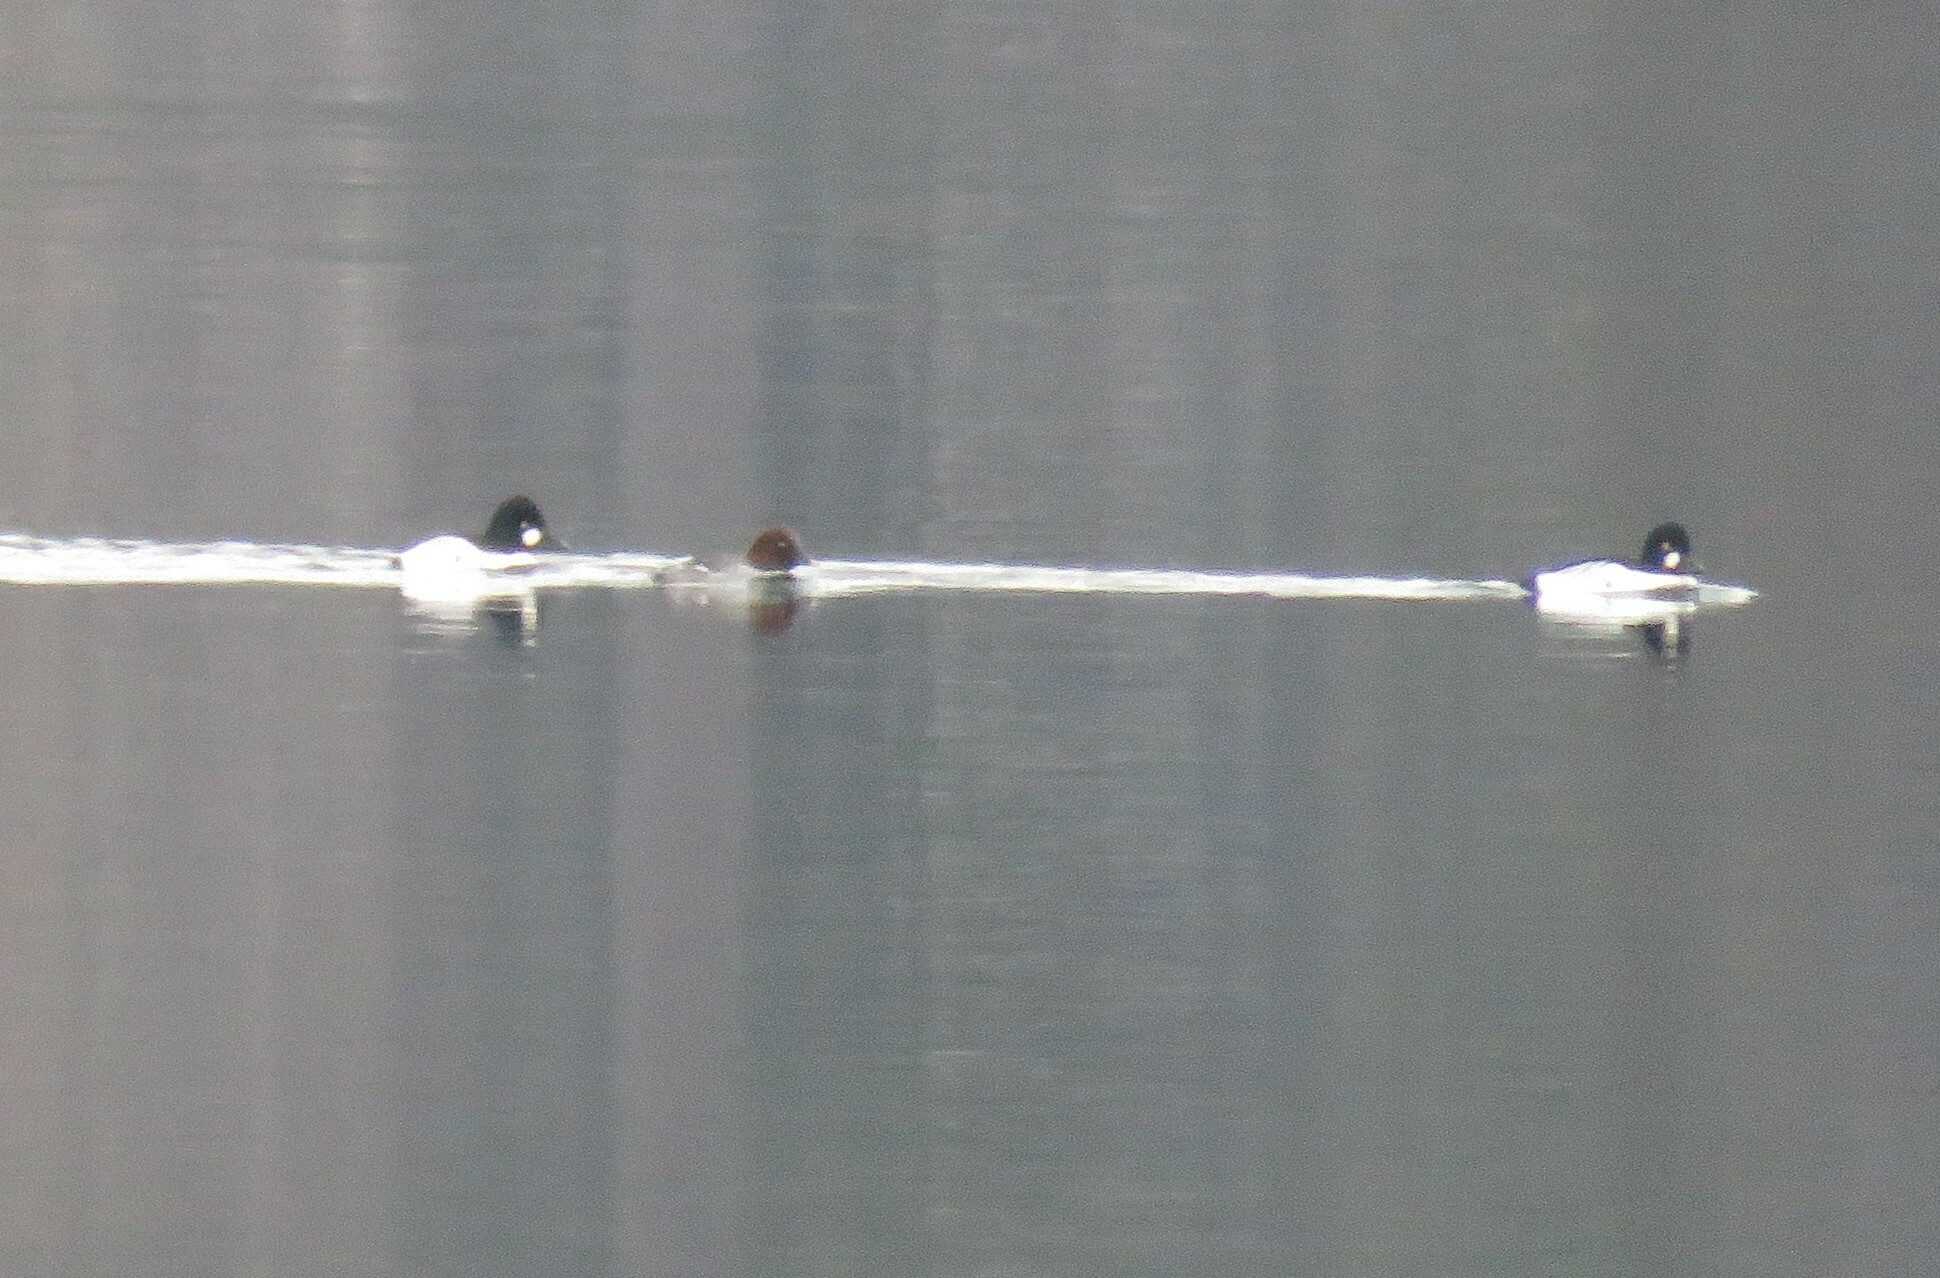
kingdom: Animalia
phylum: Chordata
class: Aves
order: Anseriformes
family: Anatidae
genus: Bucephala
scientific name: Bucephala clangula
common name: Common goldeneye
